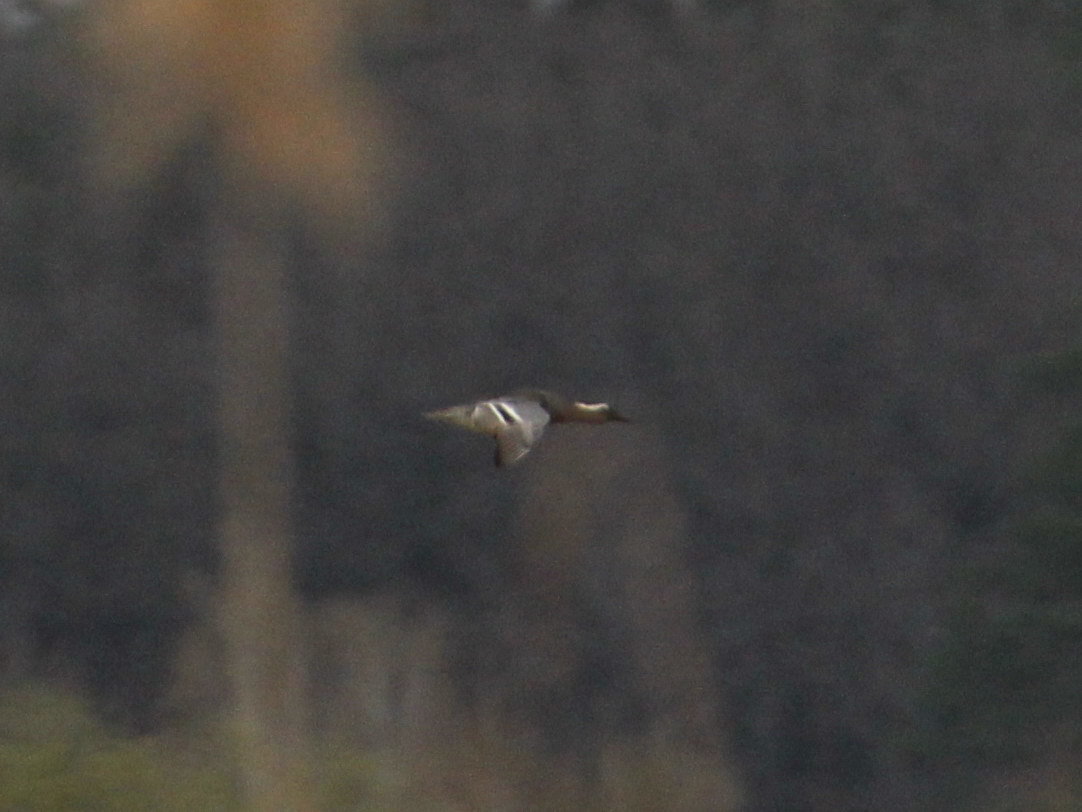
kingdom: Animalia
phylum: Chordata
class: Aves
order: Anseriformes
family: Anatidae
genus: Spatula
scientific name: Spatula querquedula
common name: Garganey
